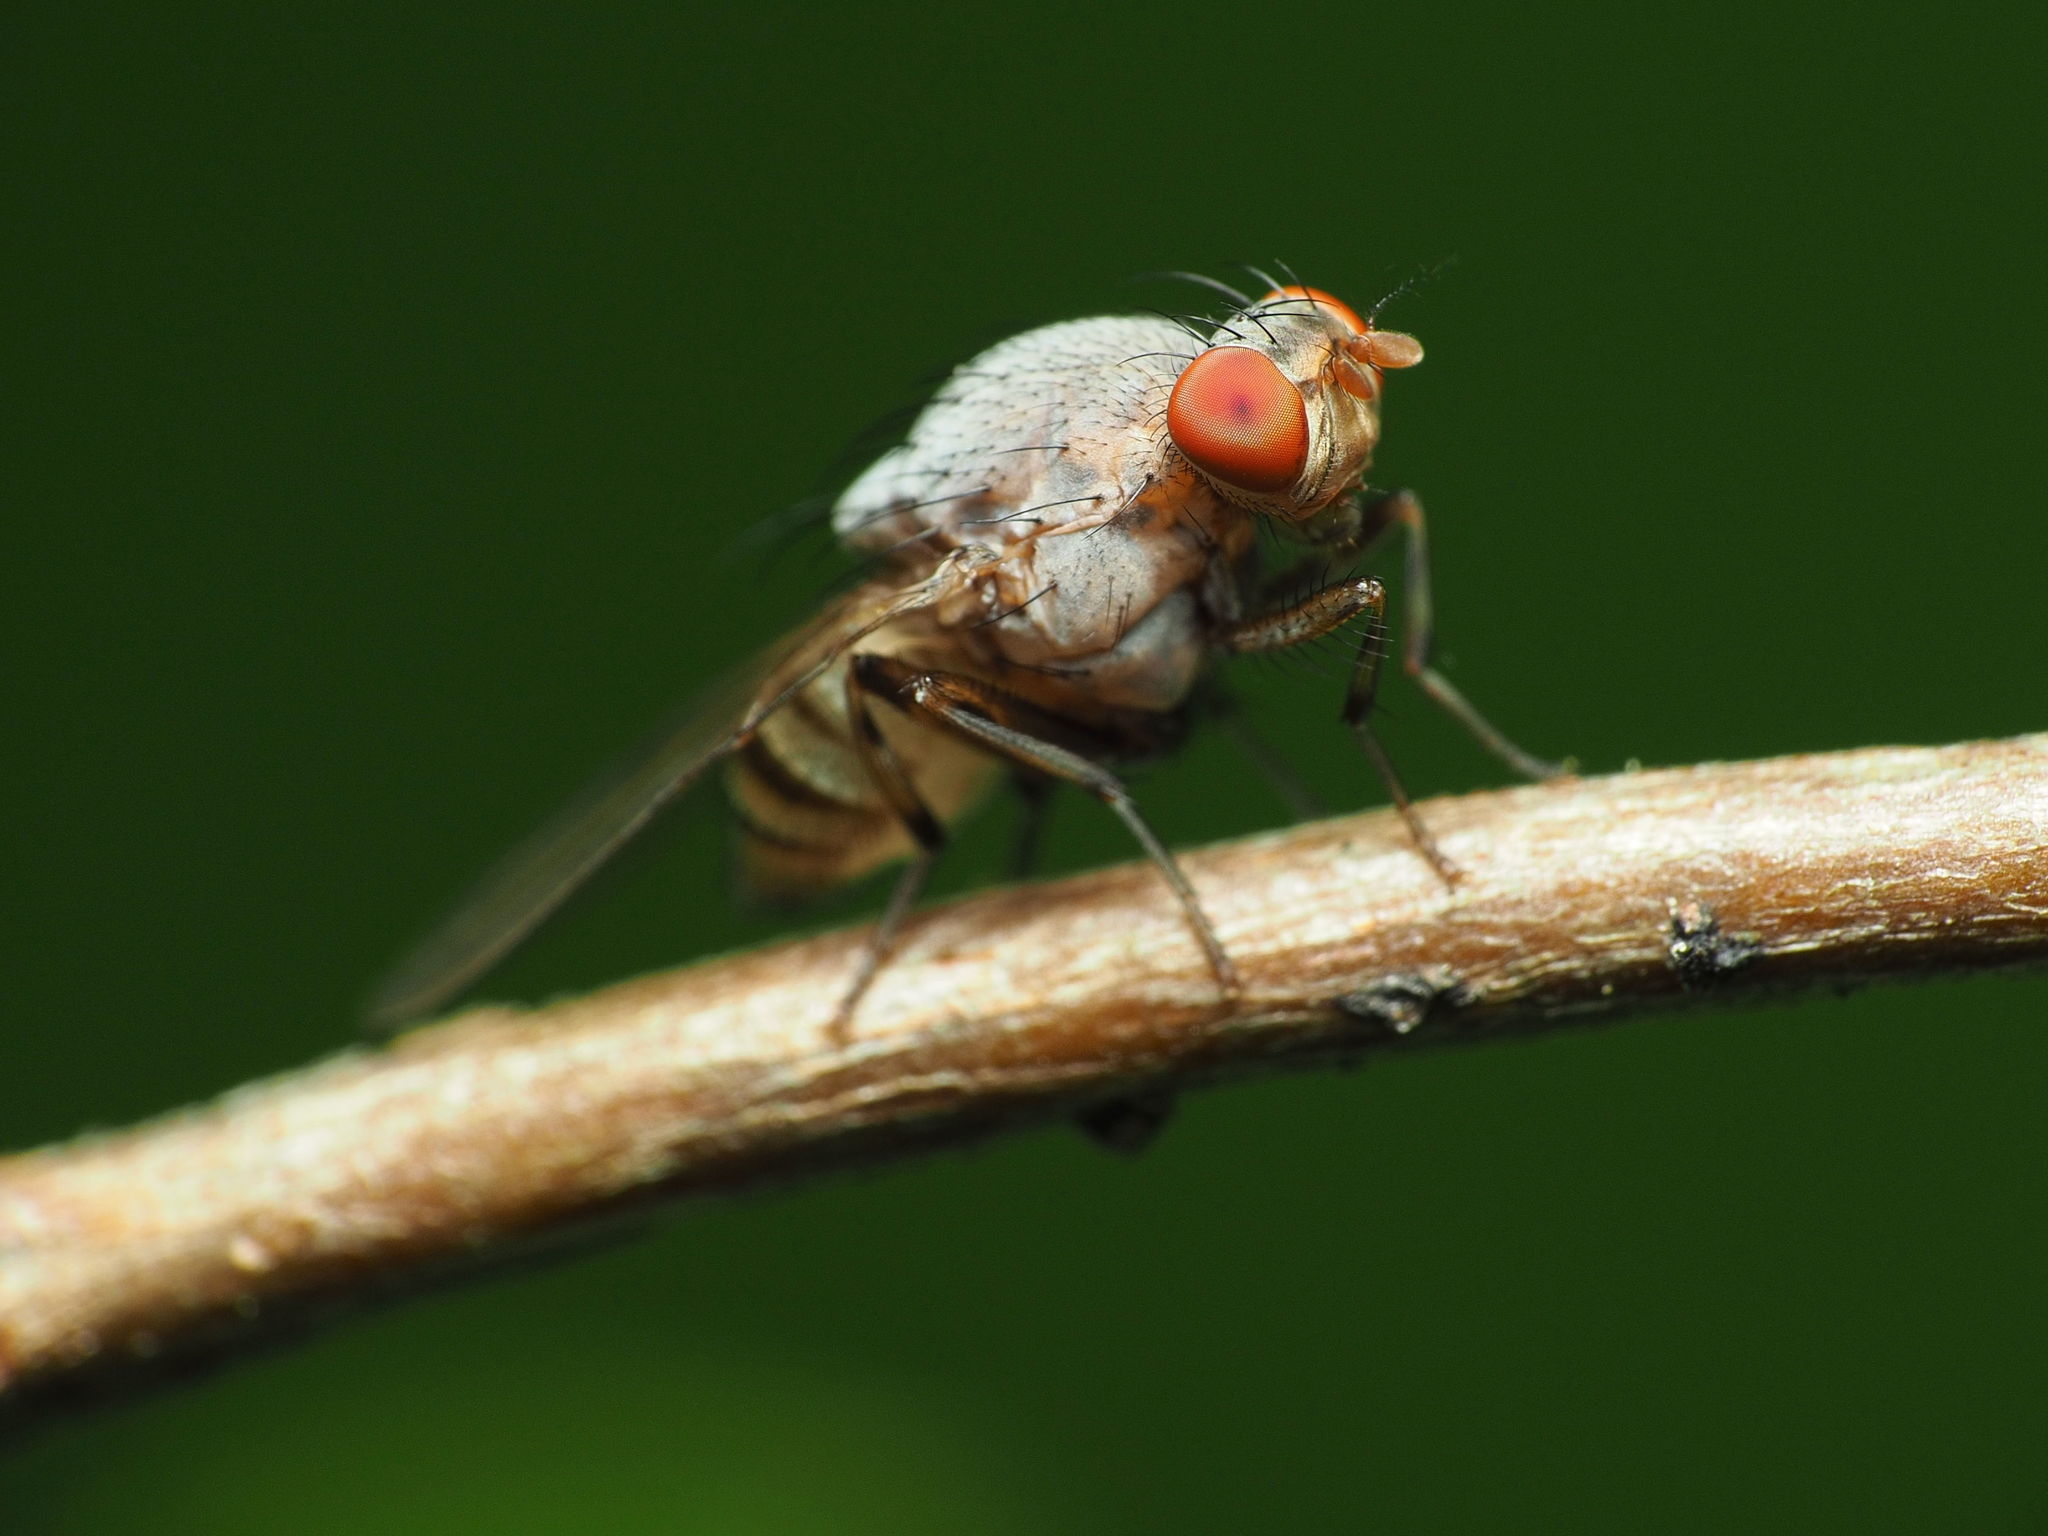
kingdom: Animalia
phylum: Arthropoda
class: Insecta
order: Diptera
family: Lauxaniidae
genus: Minettia
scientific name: Minettia magna
